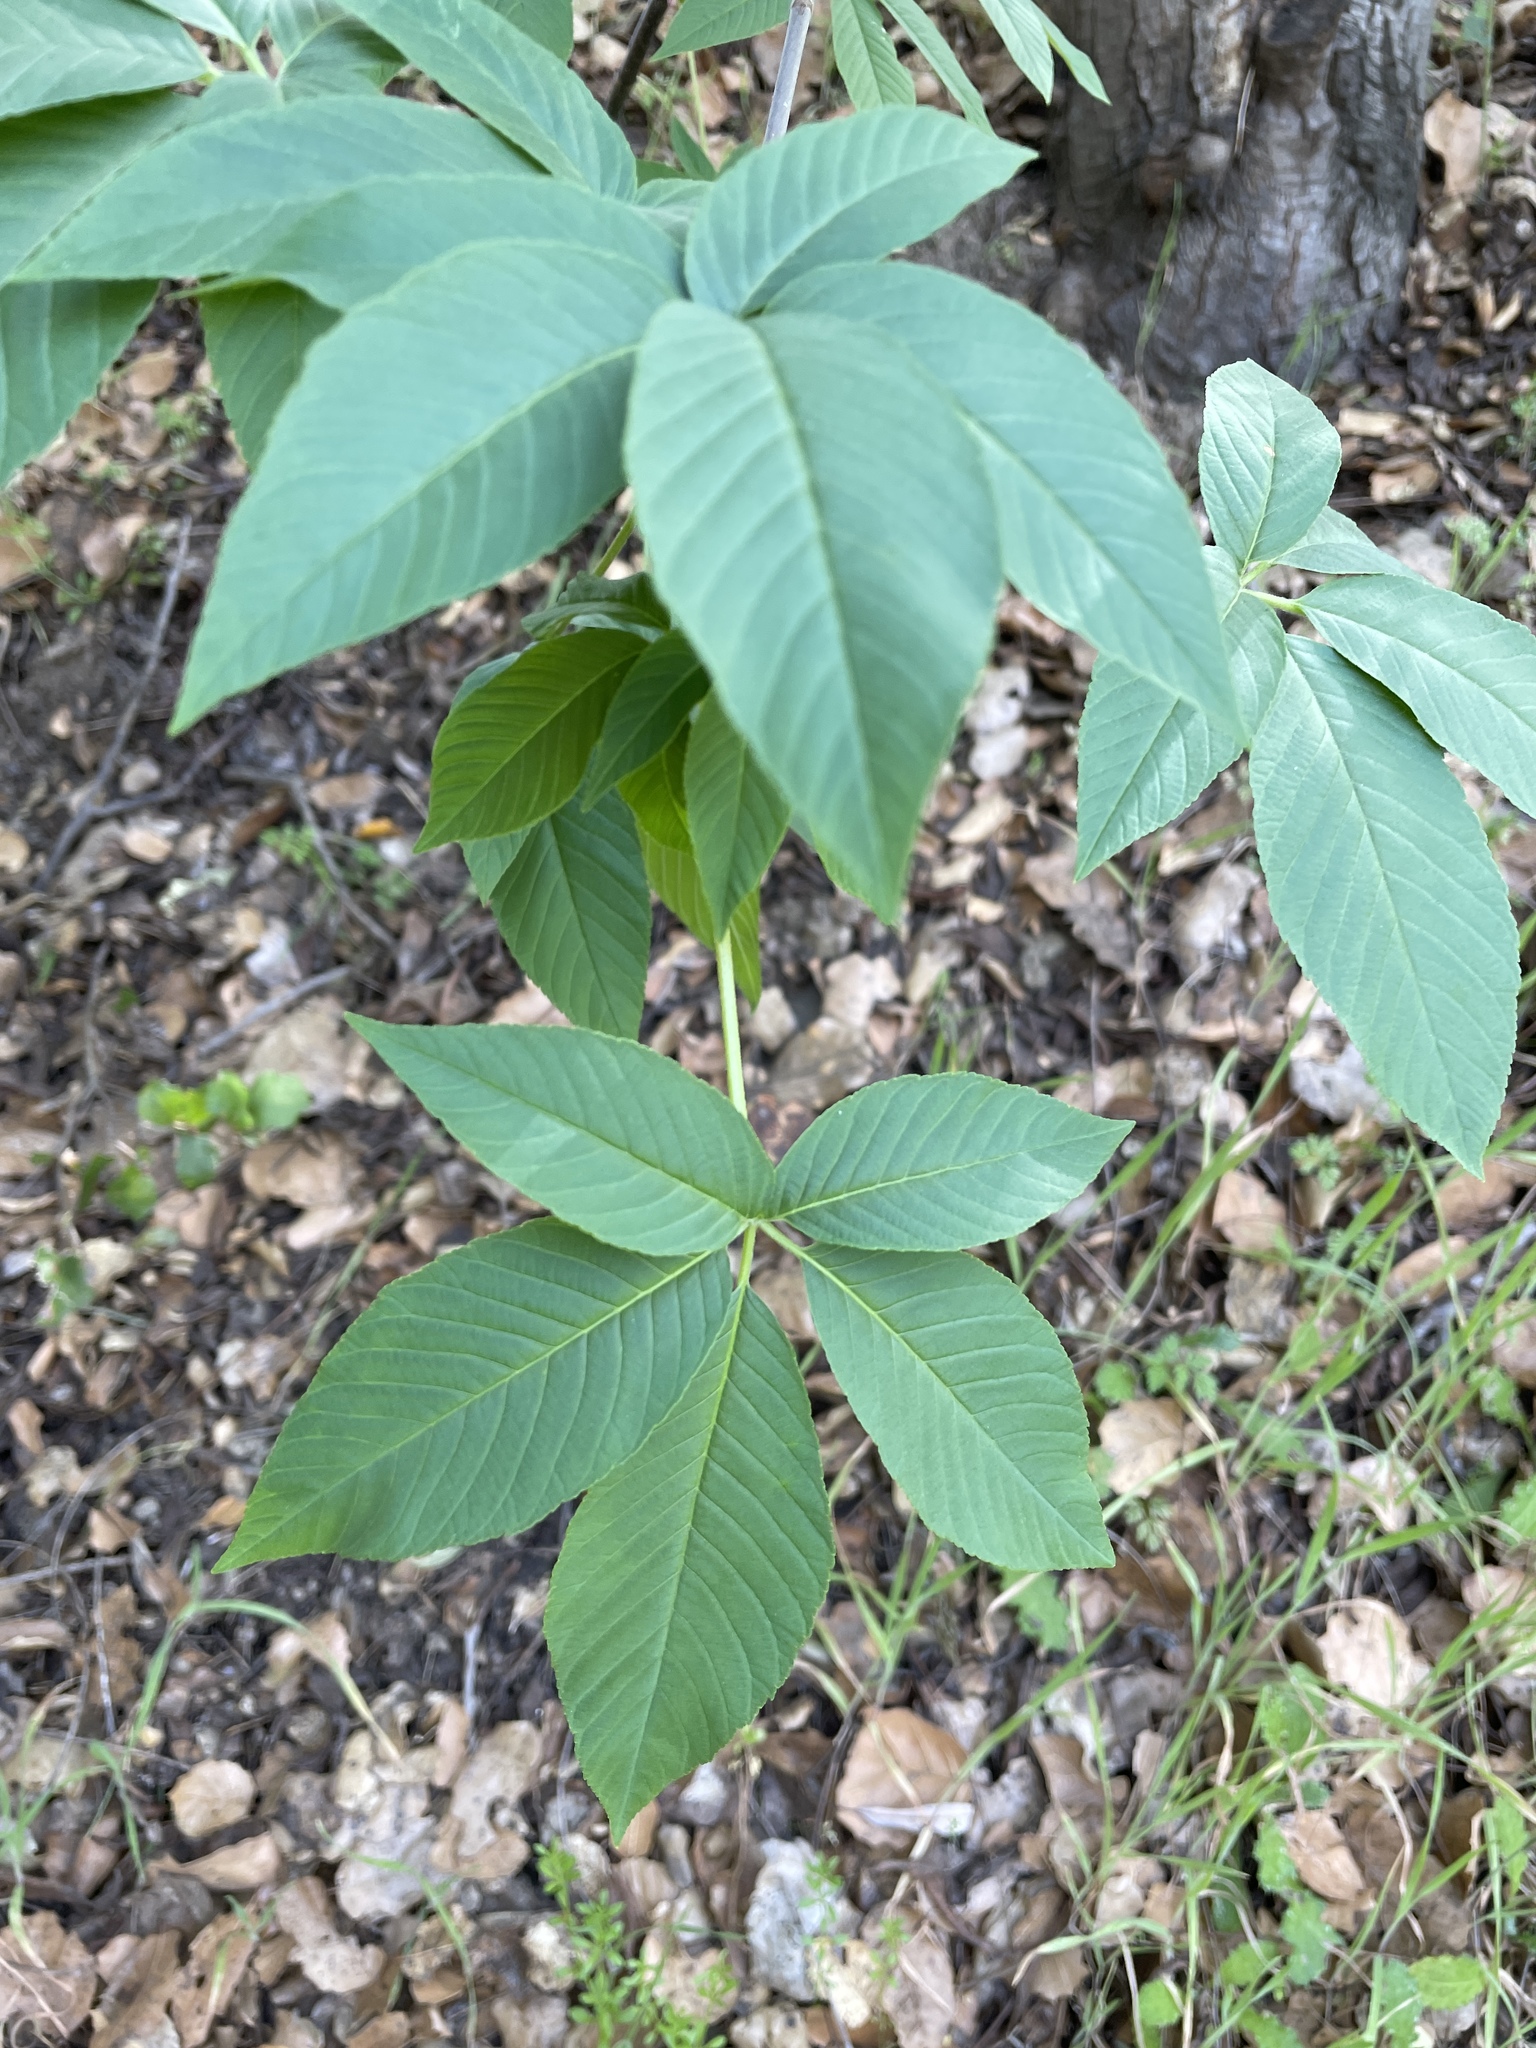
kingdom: Plantae
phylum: Tracheophyta
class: Magnoliopsida
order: Sapindales
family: Sapindaceae
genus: Aesculus
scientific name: Aesculus californica
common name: California buckeye
